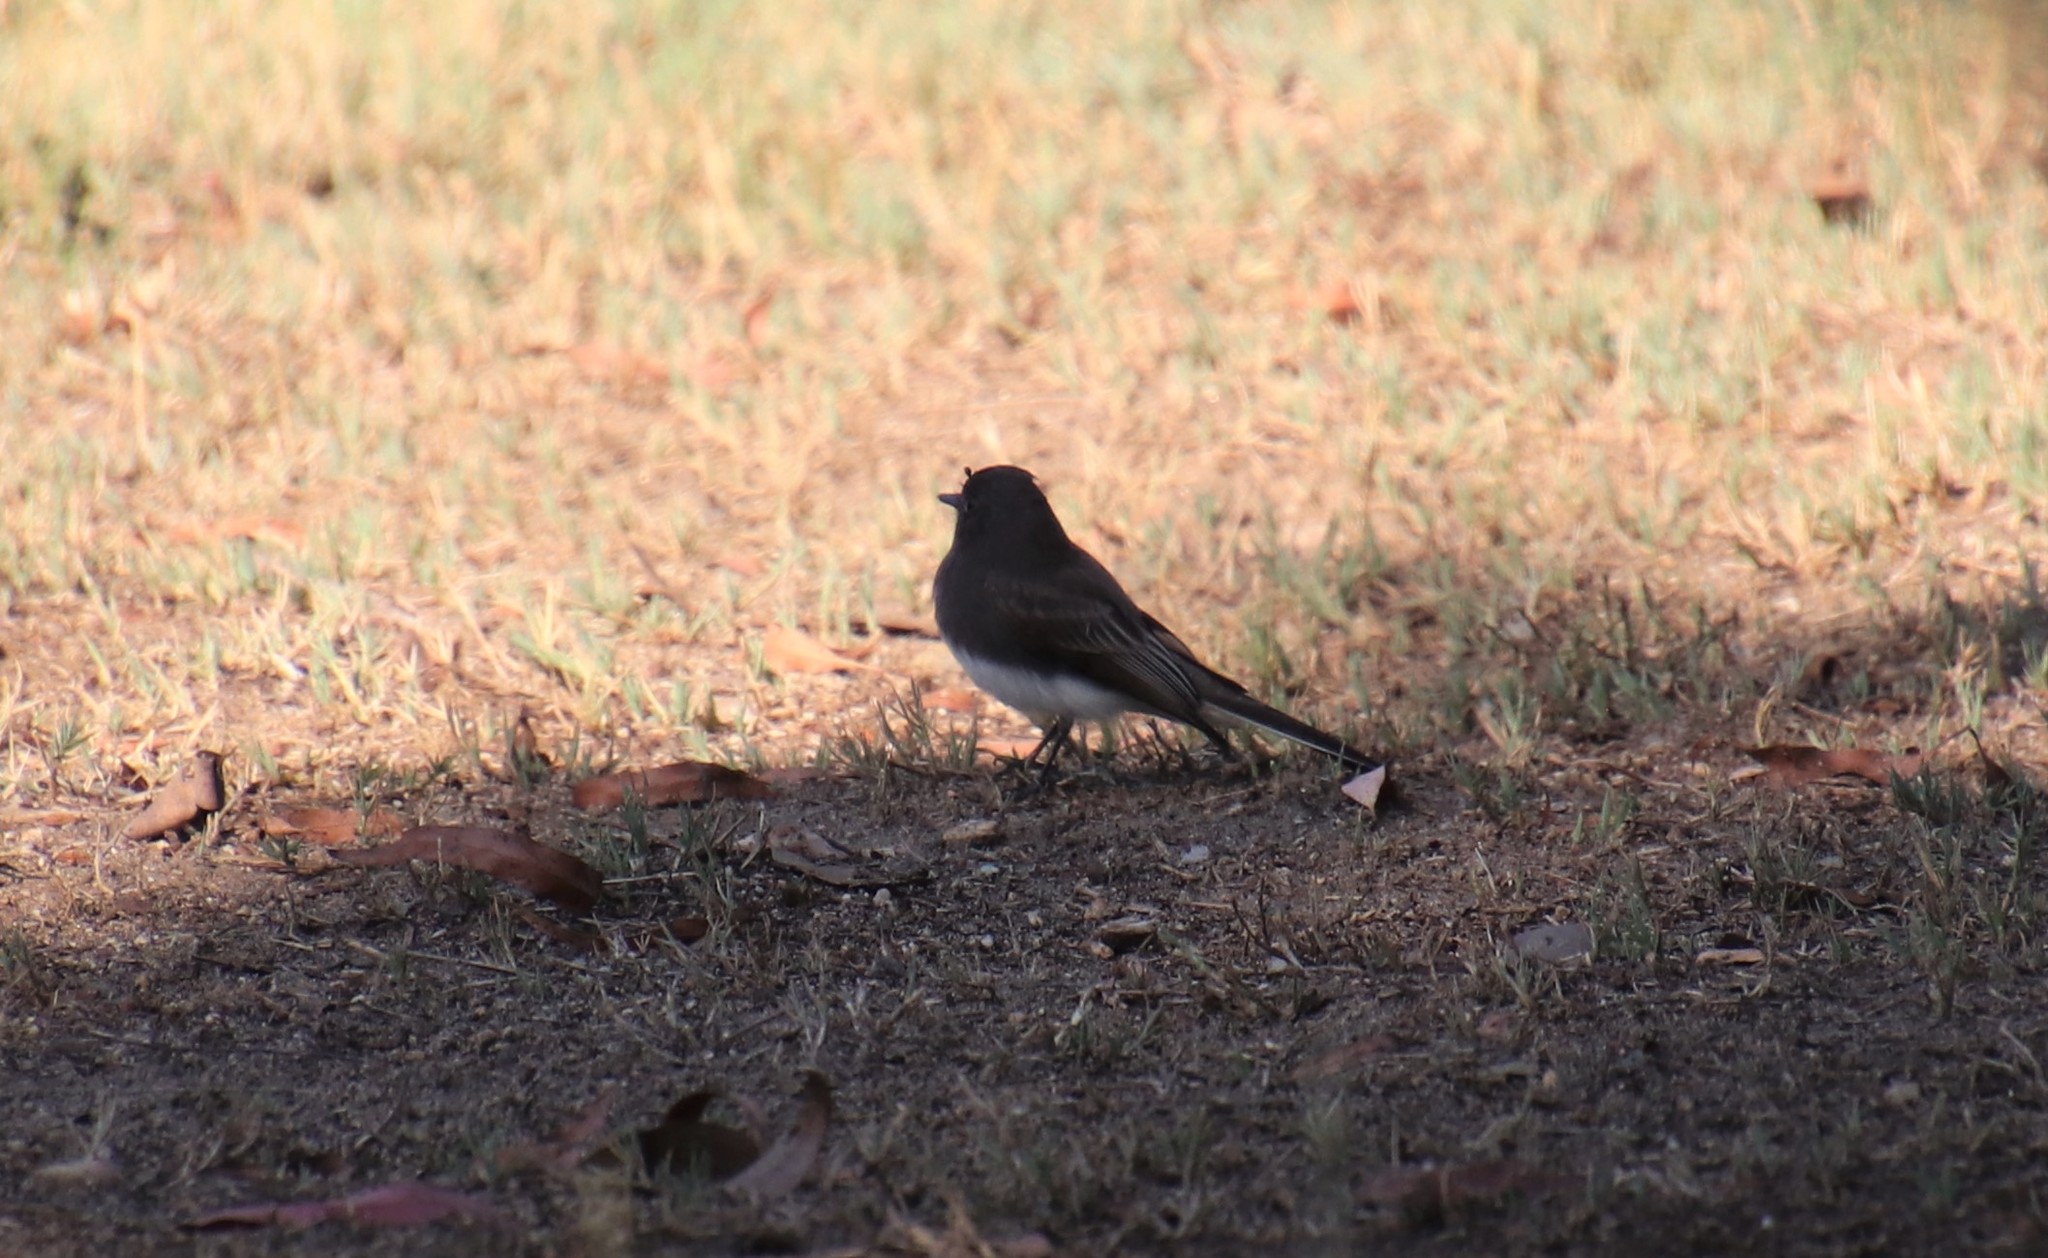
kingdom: Animalia
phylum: Chordata
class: Aves
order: Passeriformes
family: Tyrannidae
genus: Sayornis
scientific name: Sayornis nigricans
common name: Black phoebe
